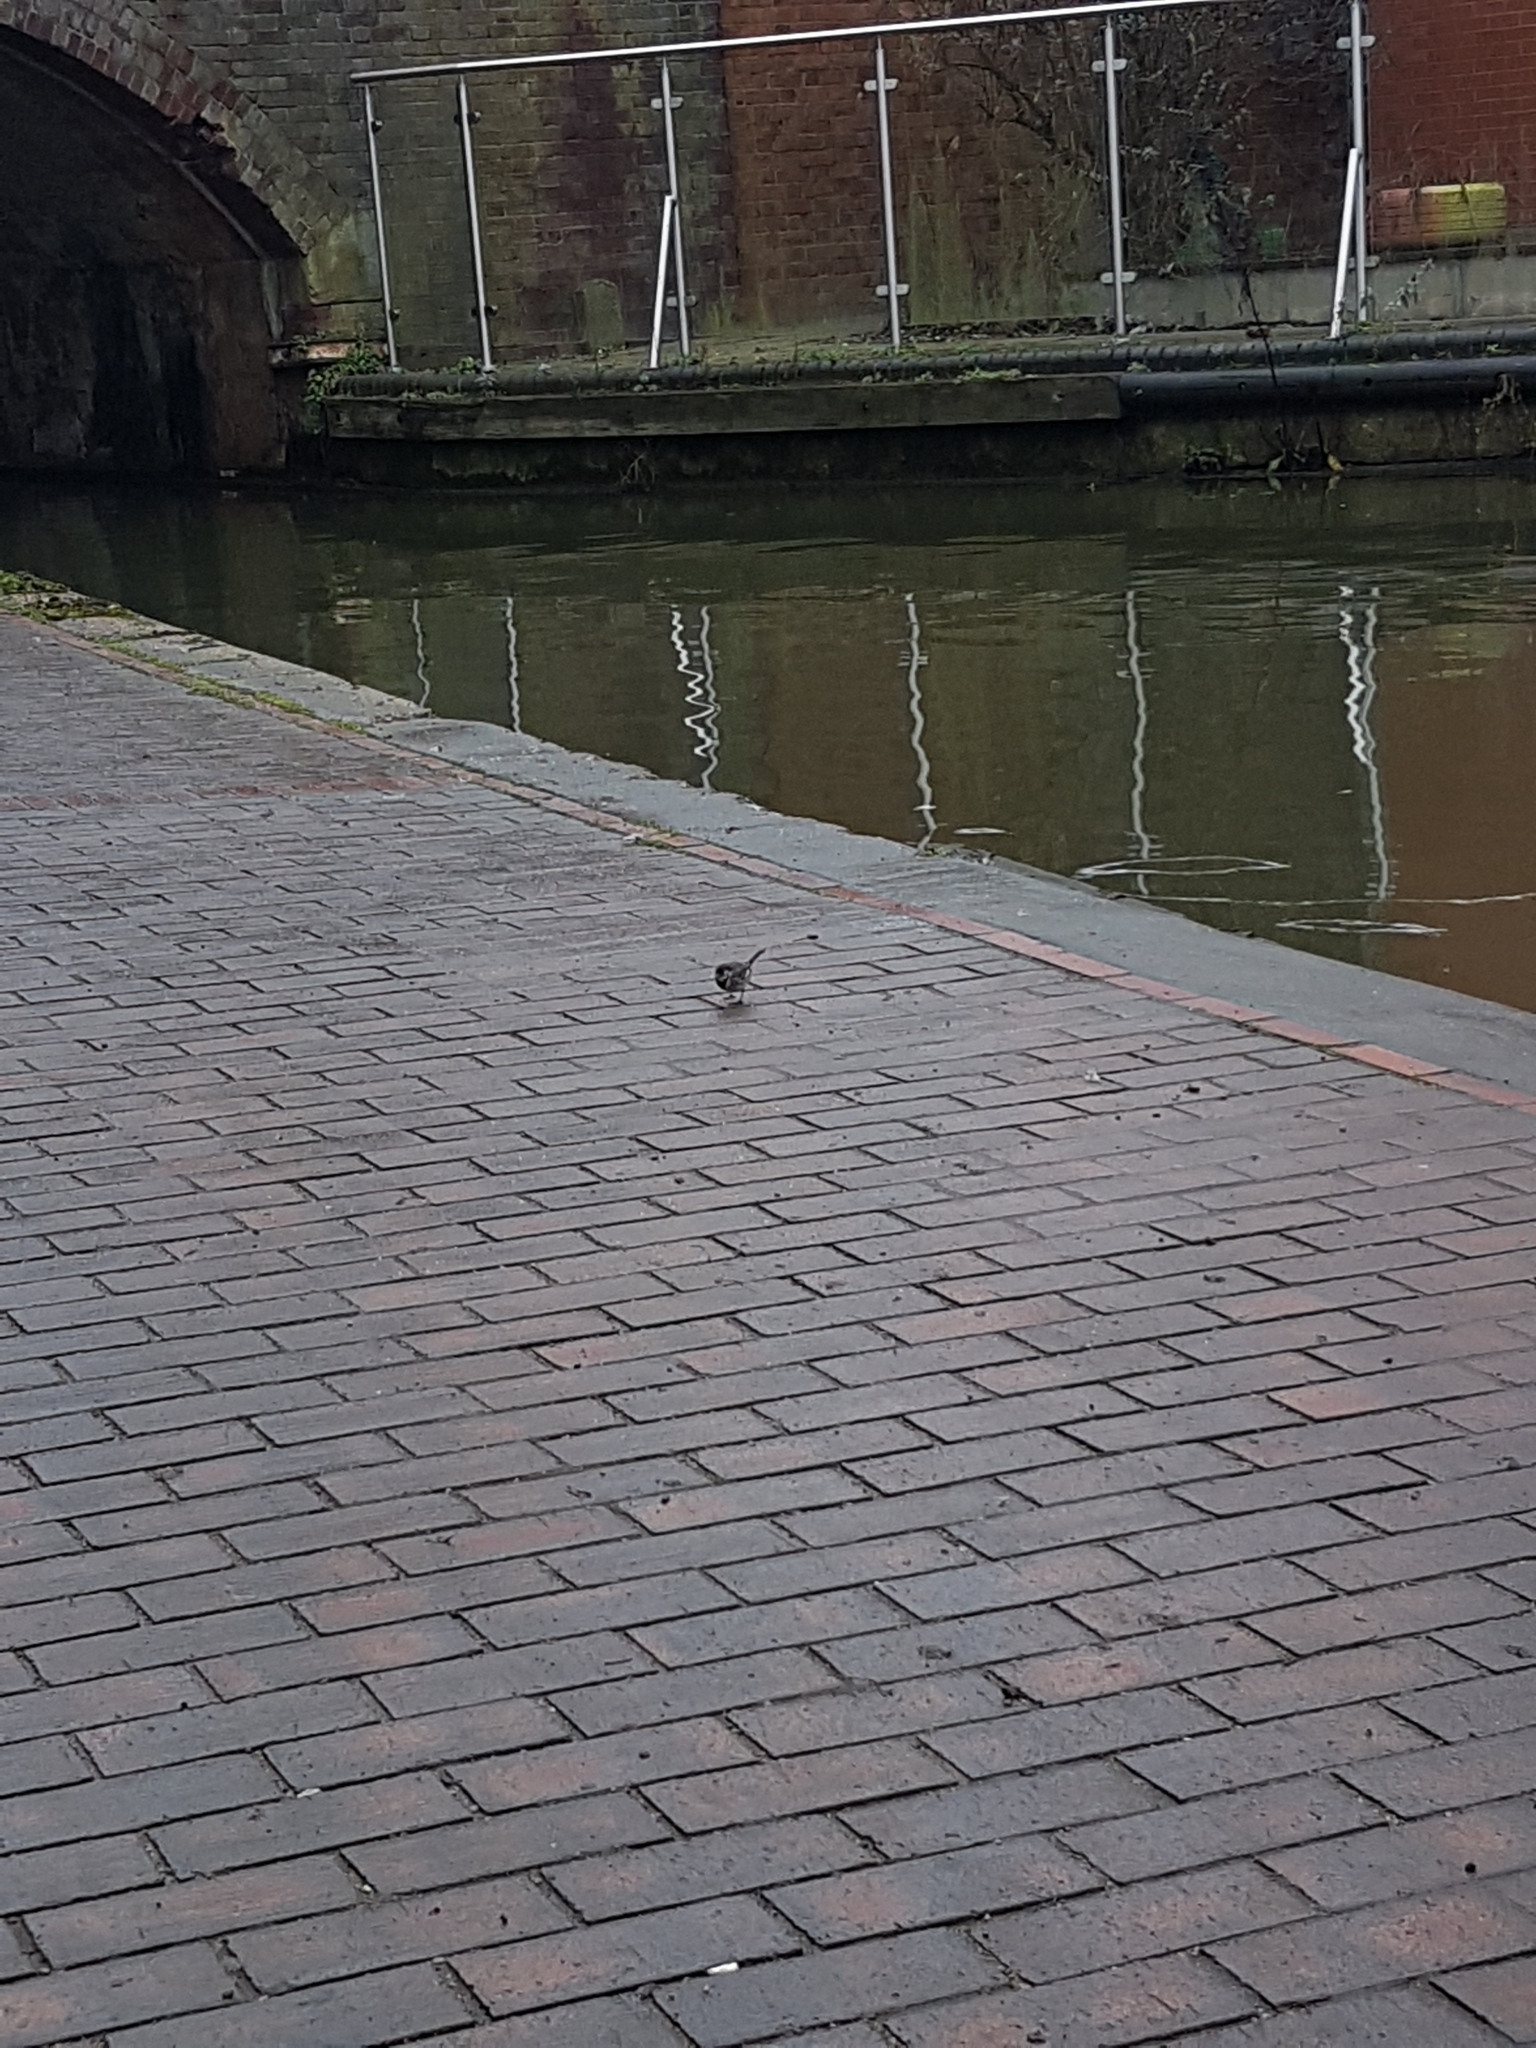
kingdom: Animalia
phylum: Chordata
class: Aves
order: Passeriformes
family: Motacillidae
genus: Motacilla
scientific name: Motacilla alba
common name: White wagtail
